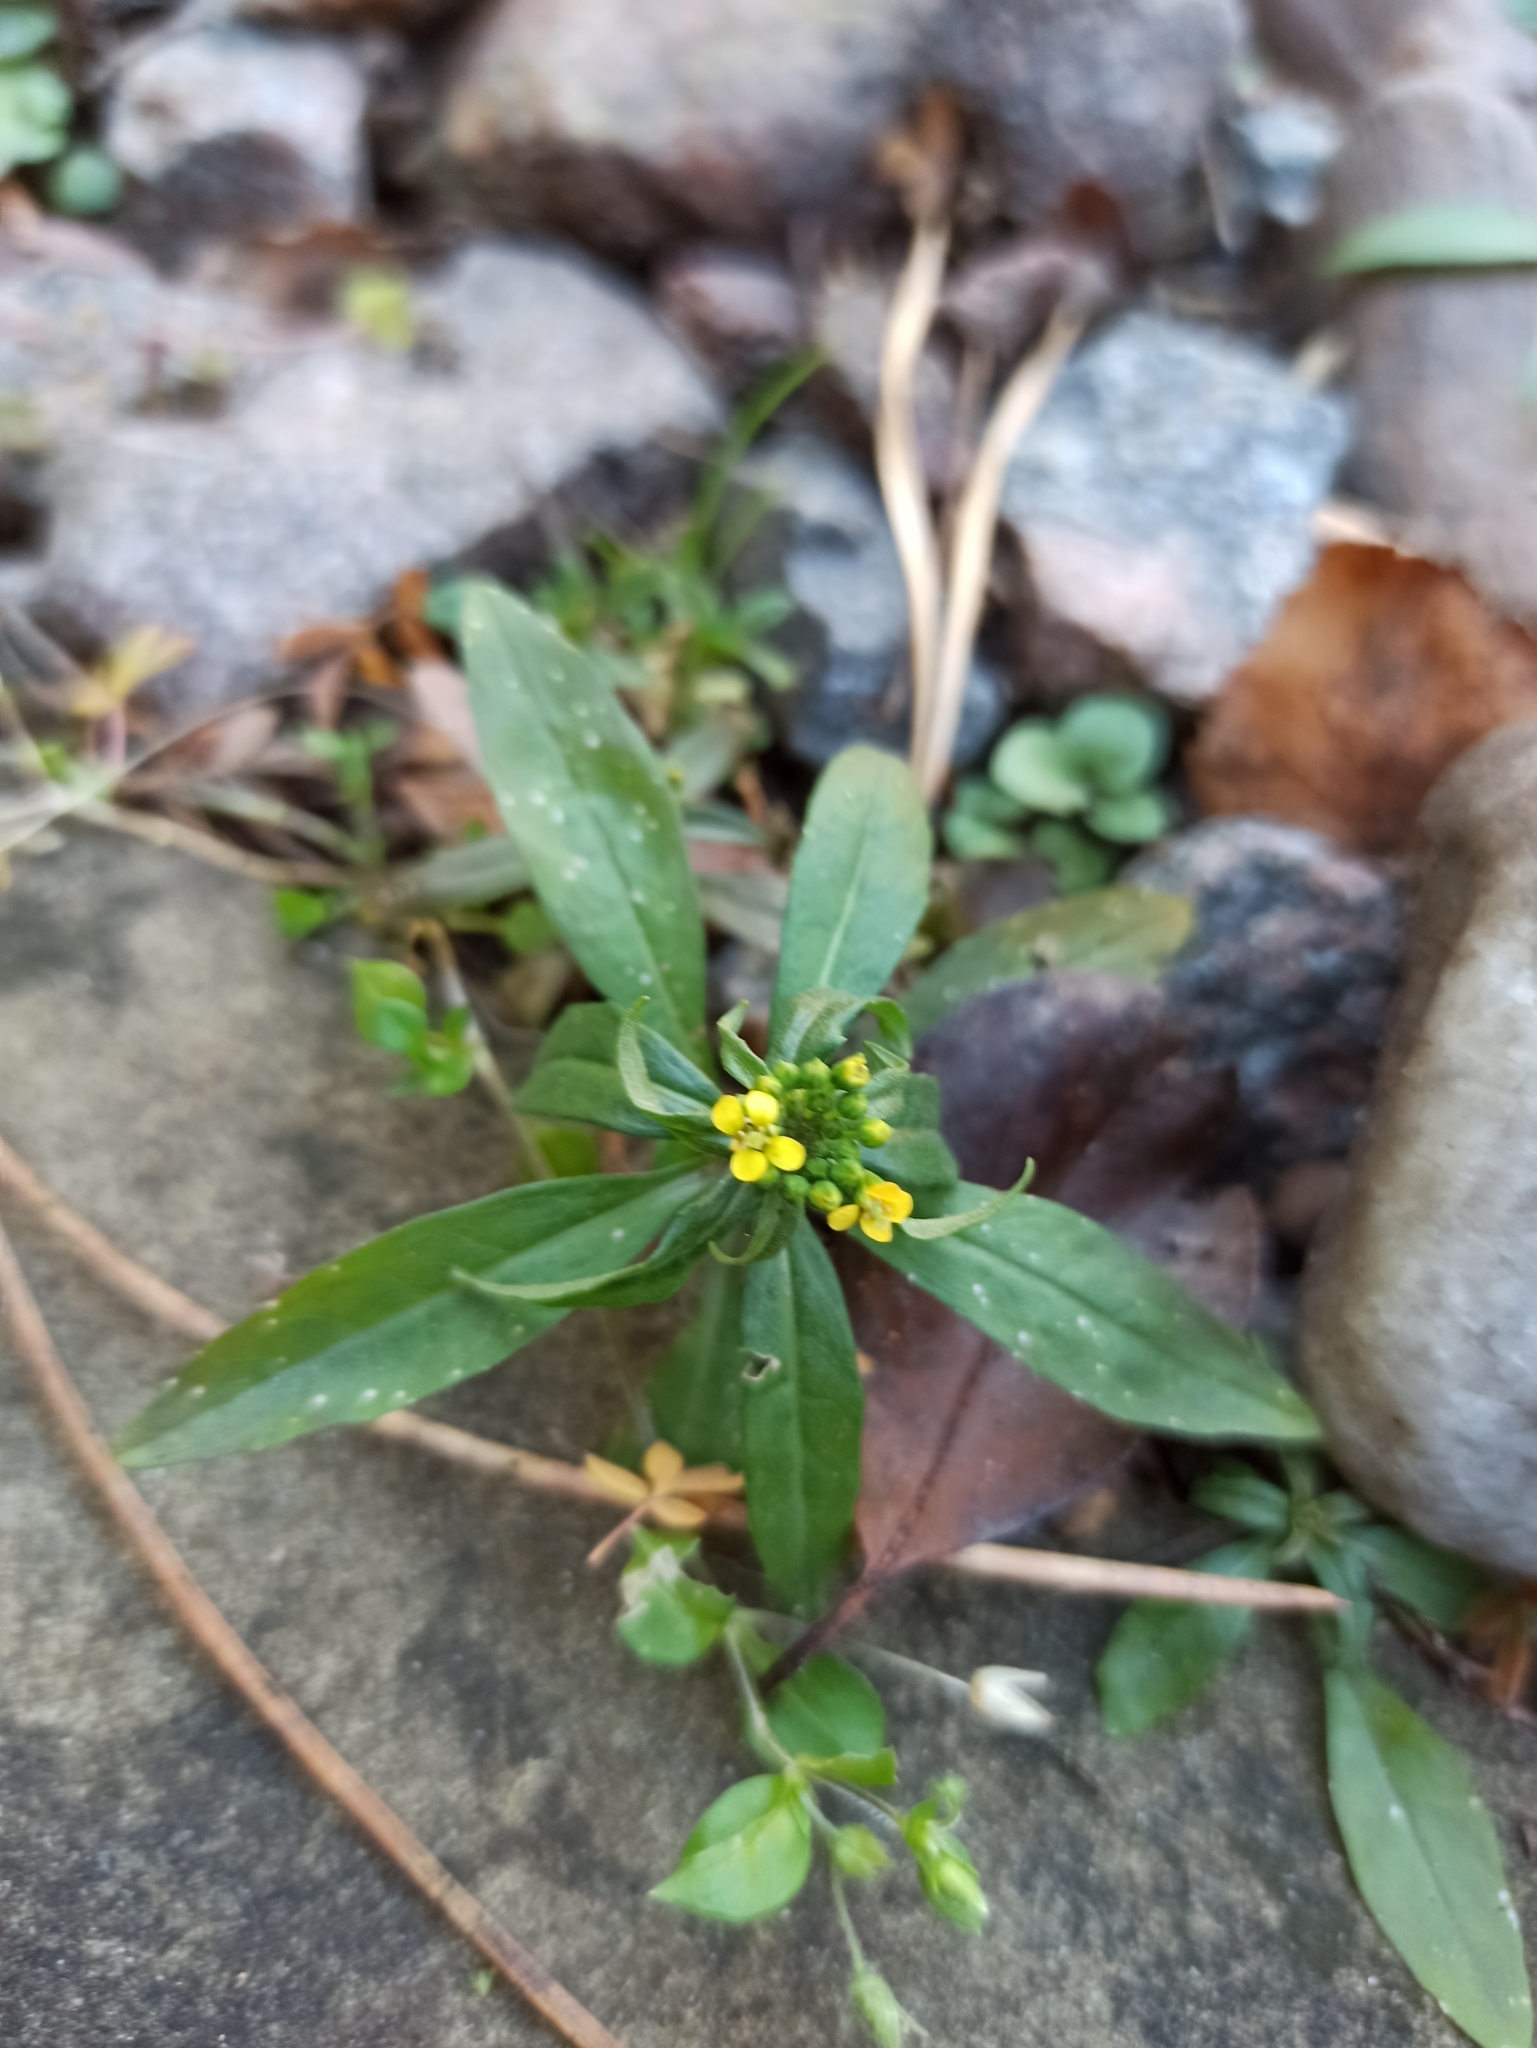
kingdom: Plantae
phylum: Tracheophyta
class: Magnoliopsida
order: Brassicales
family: Brassicaceae
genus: Erysimum
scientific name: Erysimum cheiranthoides
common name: Treacle mustard
